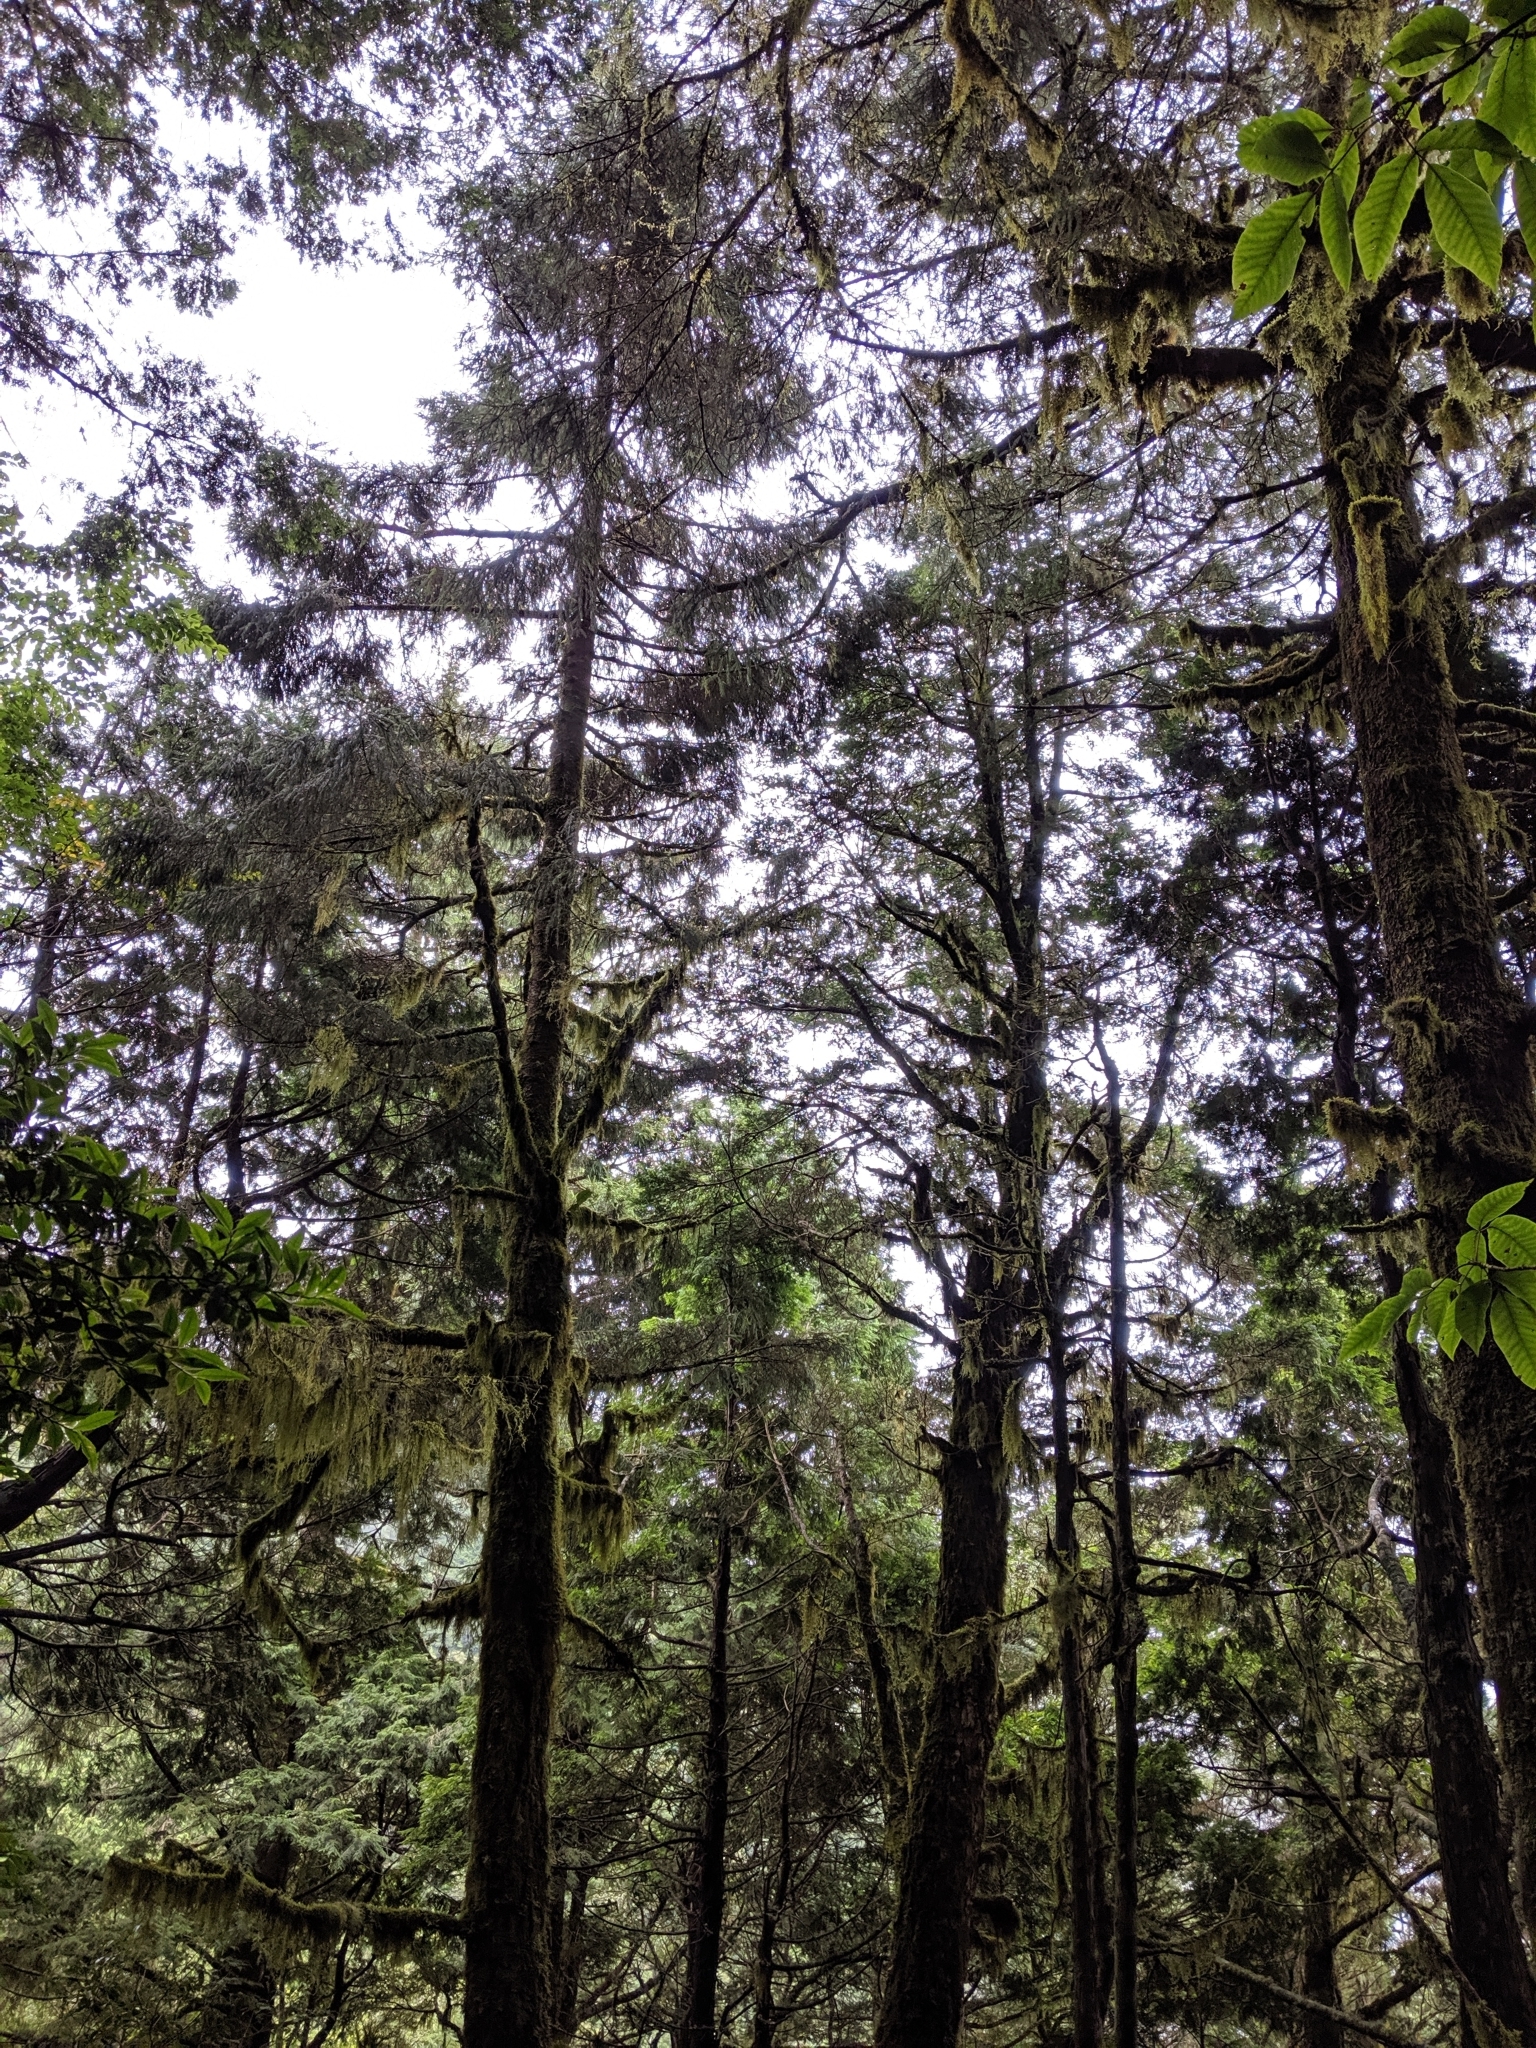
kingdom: Plantae
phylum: Tracheophyta
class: Pinopsida
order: Pinales
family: Pinaceae
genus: Picea
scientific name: Picea morrisonicola
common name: Mount morrison spruce
